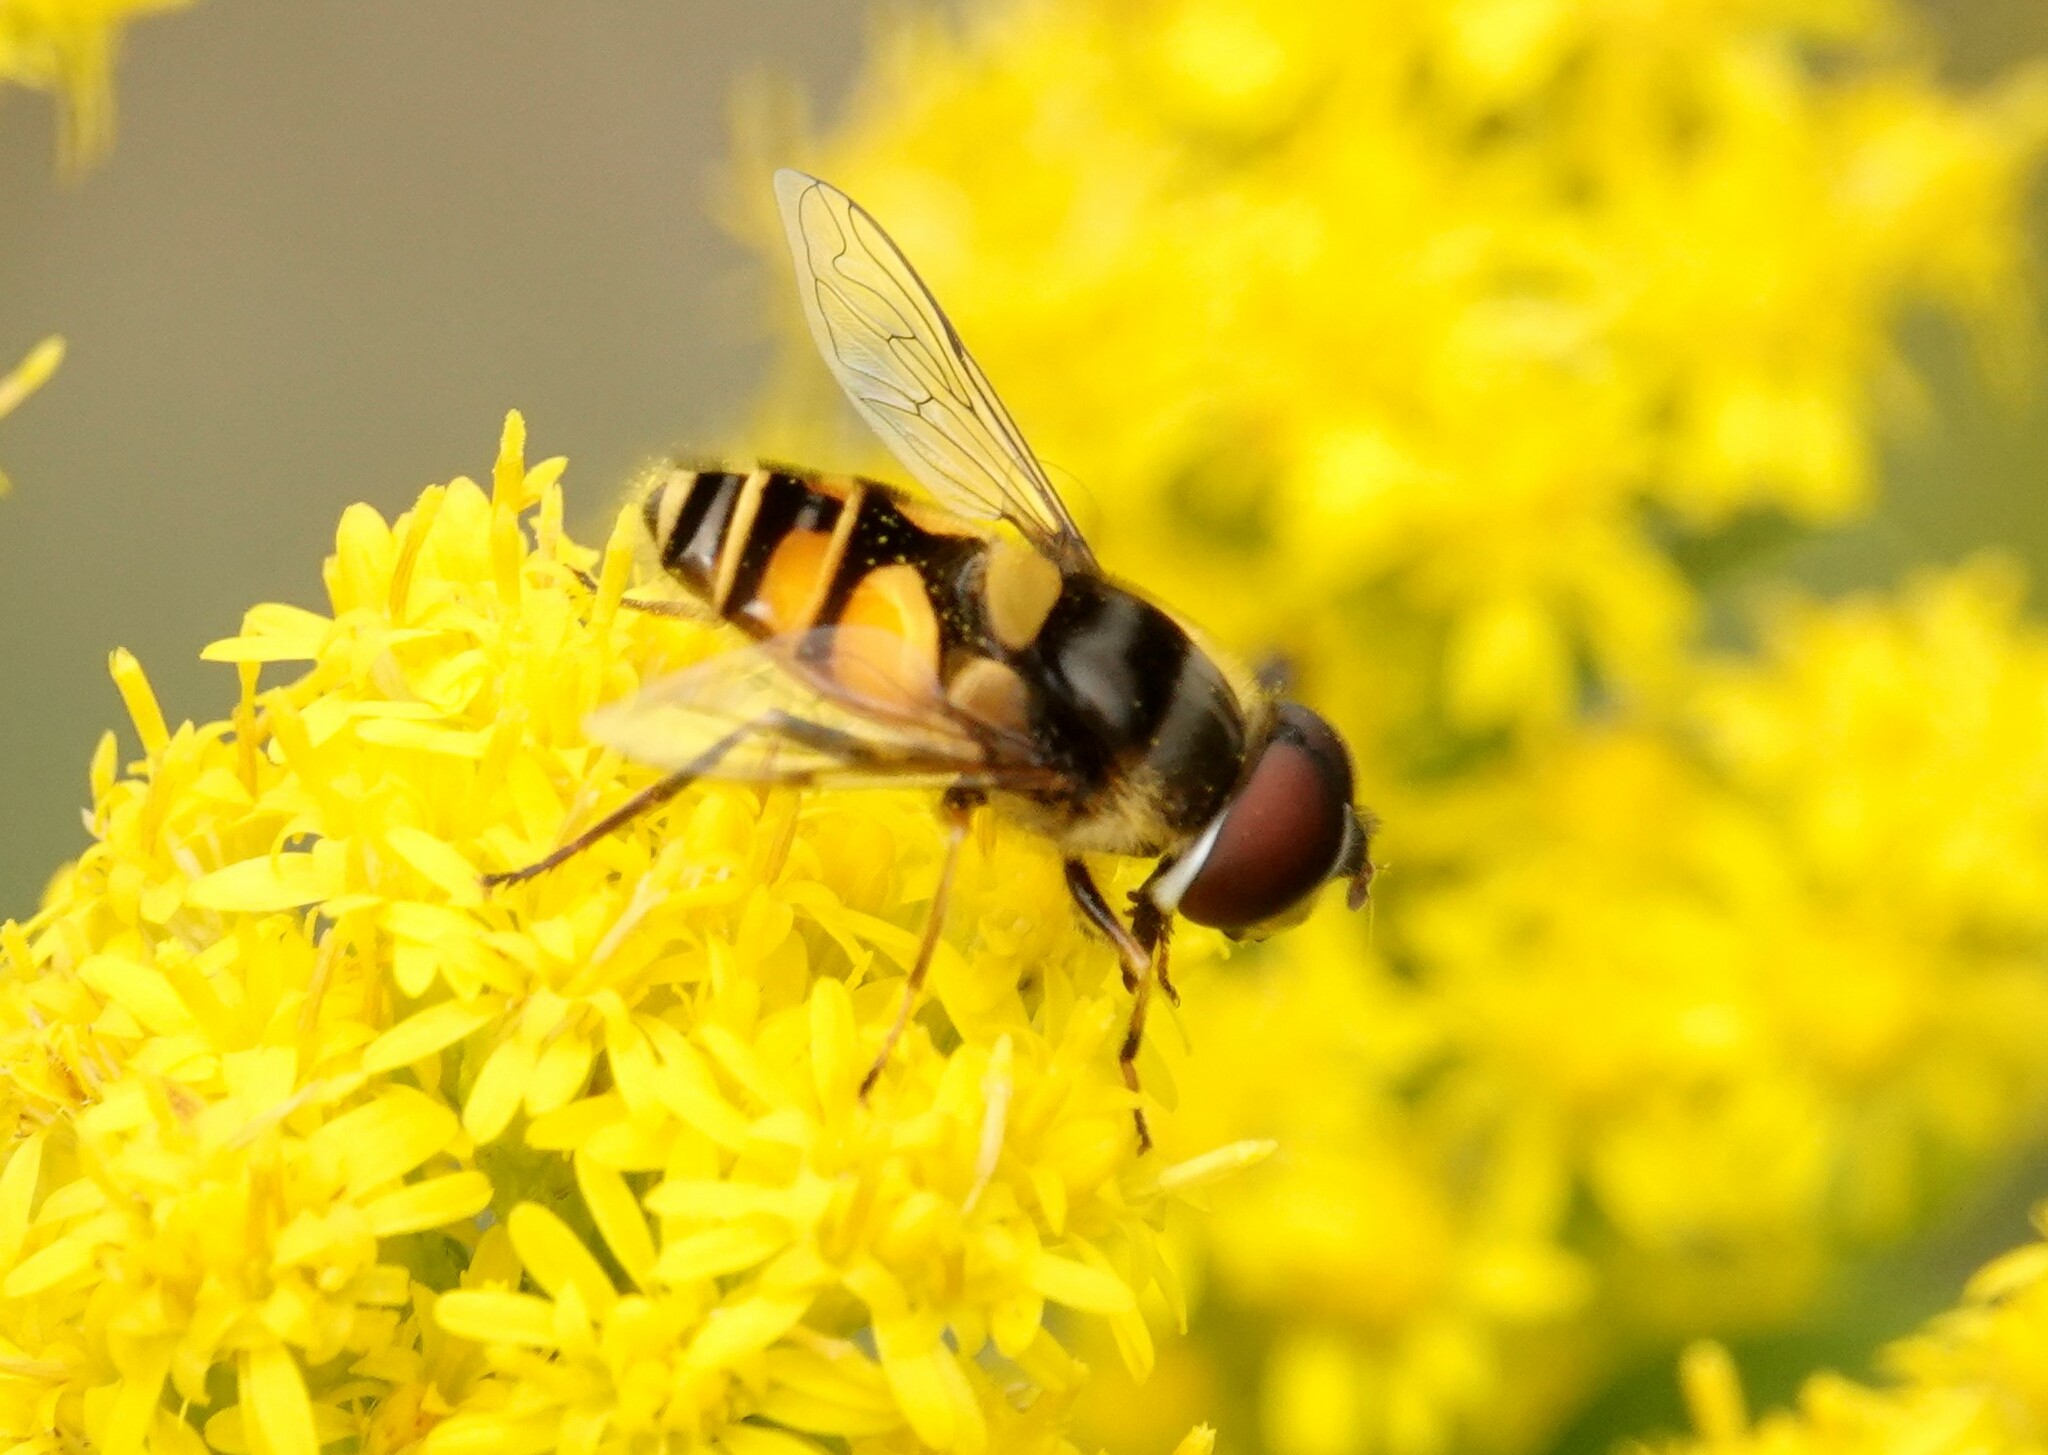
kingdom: Animalia
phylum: Arthropoda
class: Insecta
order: Diptera
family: Syrphidae
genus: Eristalis
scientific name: Eristalis transversa
